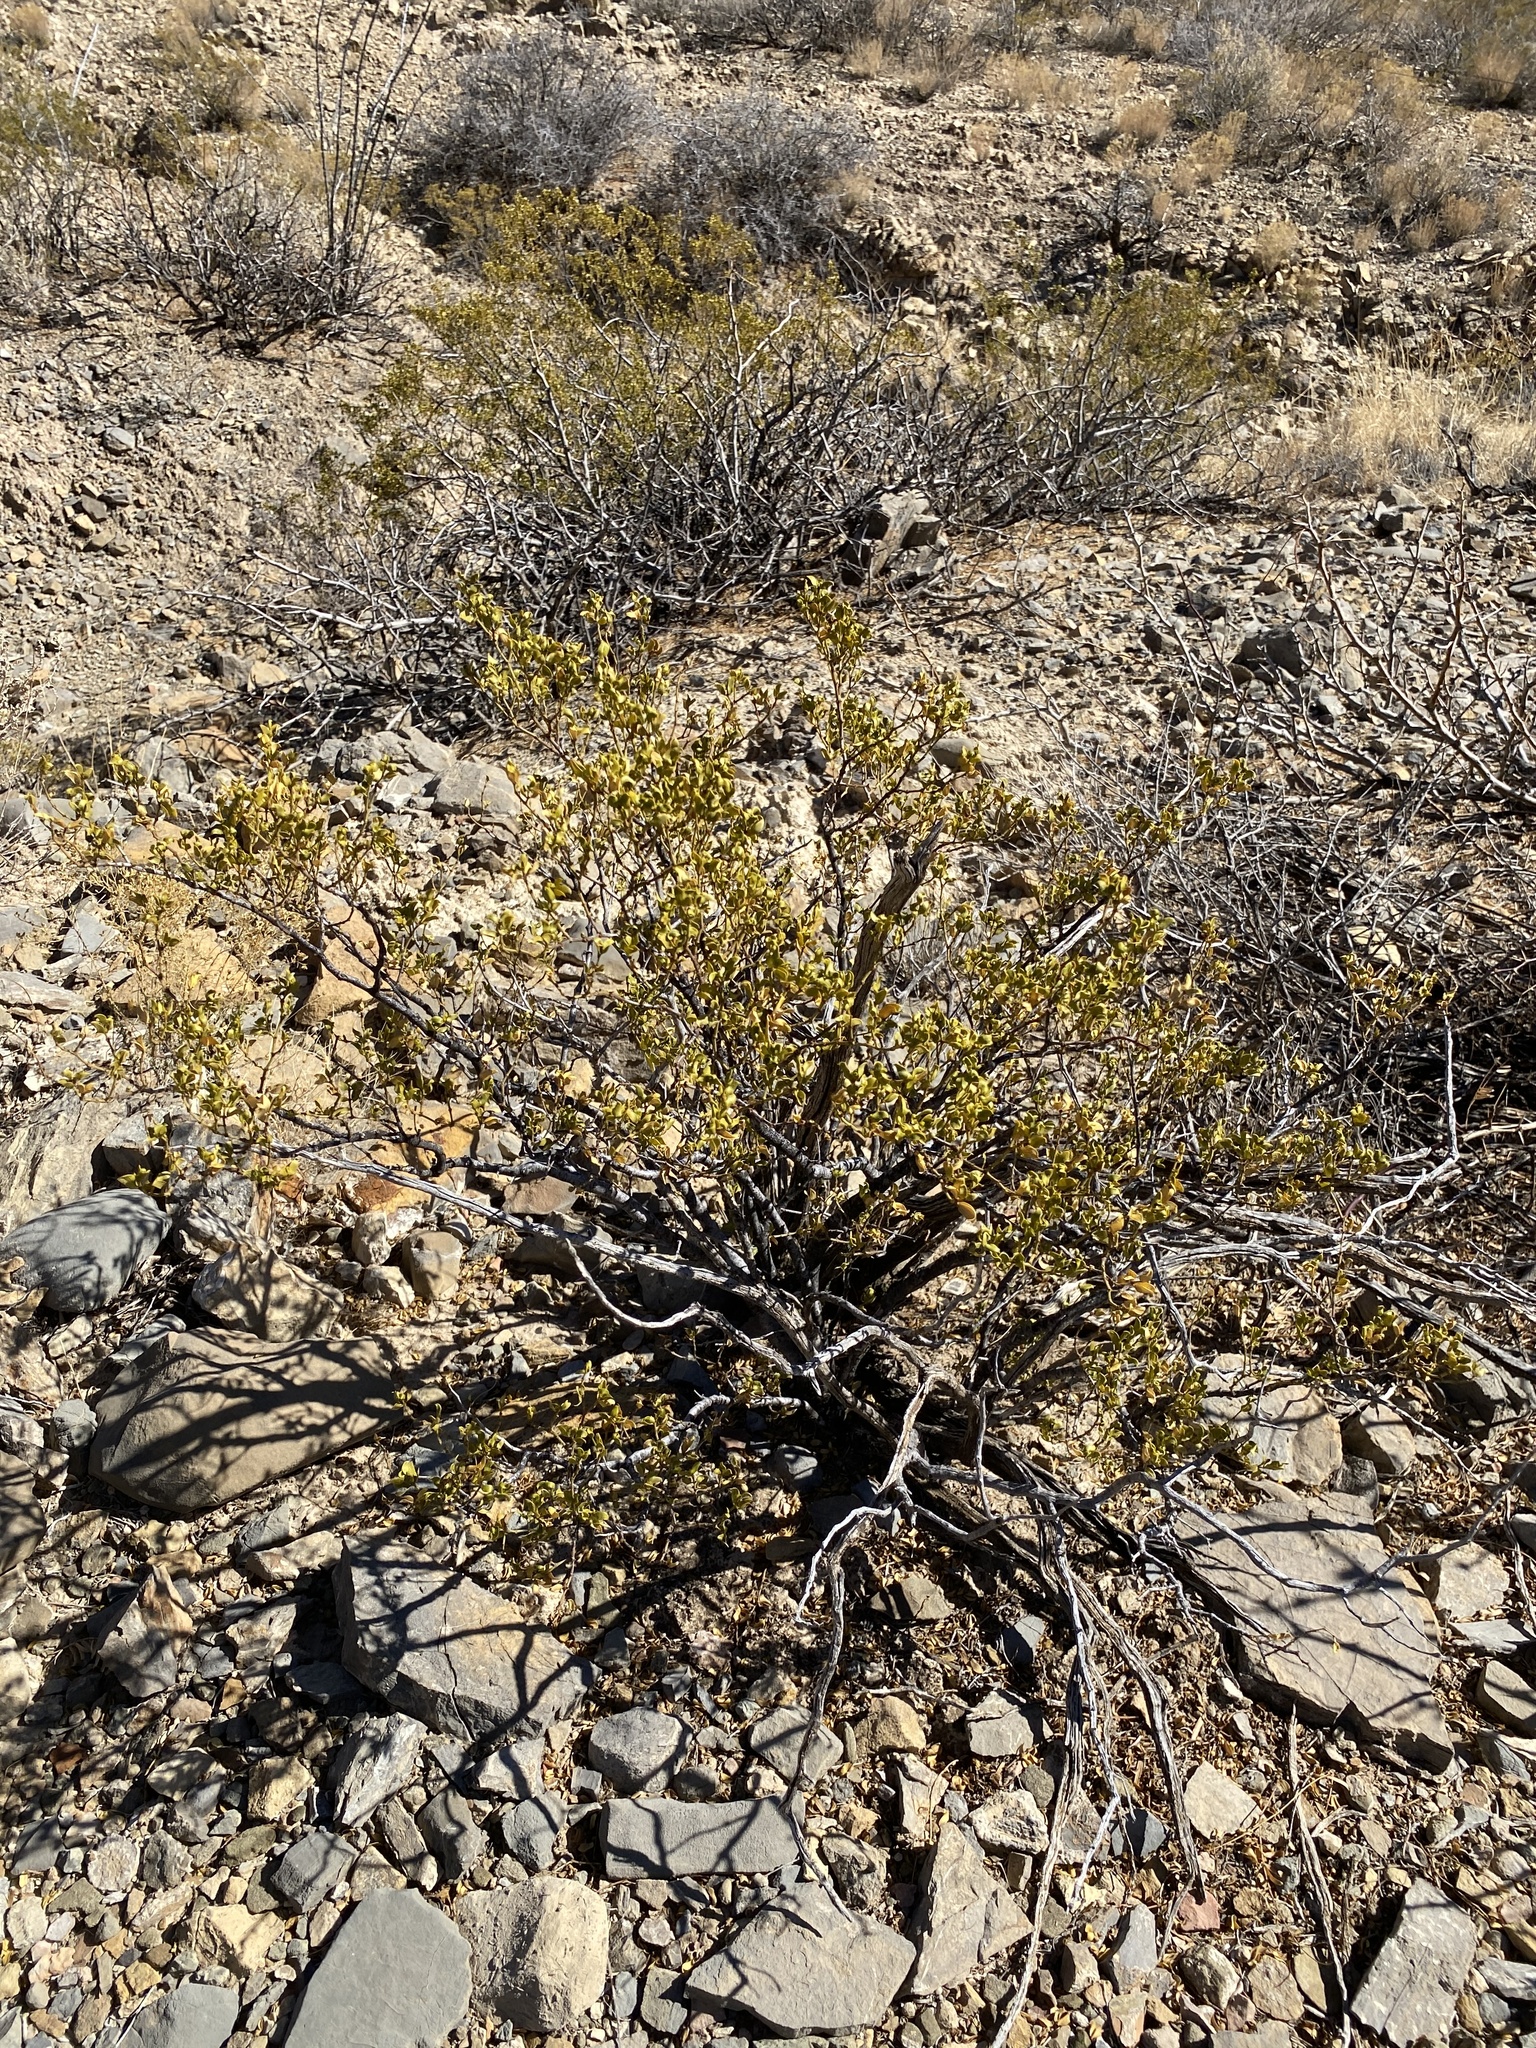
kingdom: Plantae
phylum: Tracheophyta
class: Magnoliopsida
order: Zygophyllales
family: Zygophyllaceae
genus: Larrea
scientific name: Larrea tridentata
